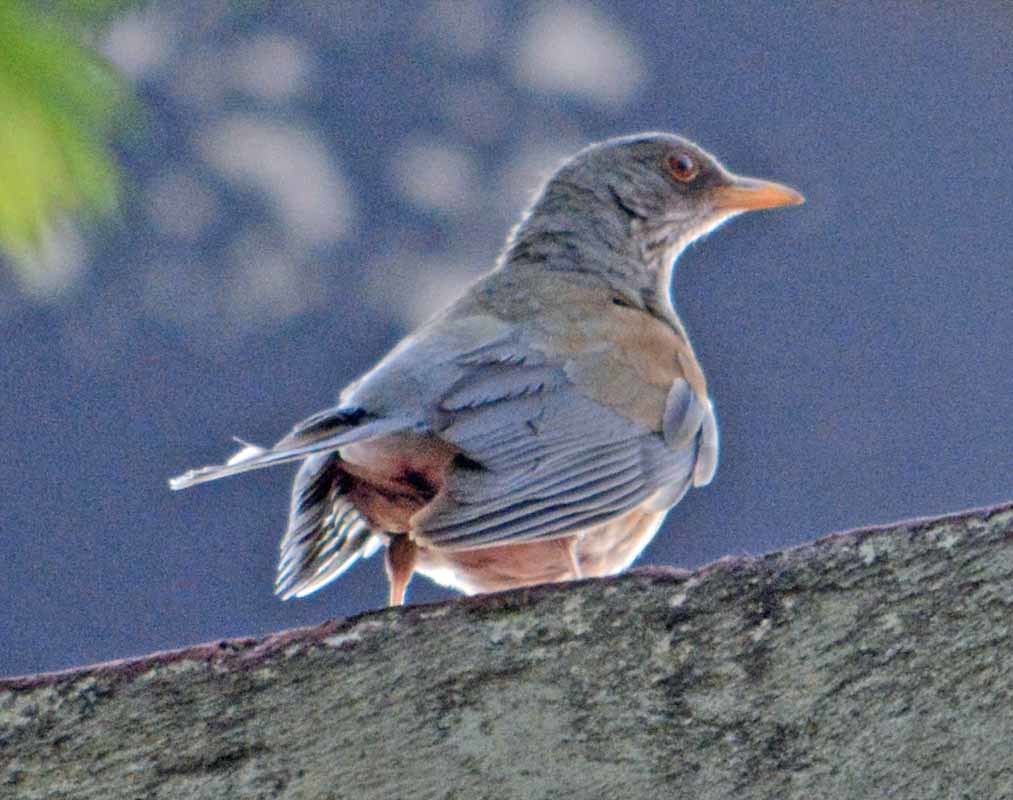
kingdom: Animalia
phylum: Chordata
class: Aves
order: Passeriformes
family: Turdidae
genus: Turdus
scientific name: Turdus rufopalliatus
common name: Rufous-backed robin
